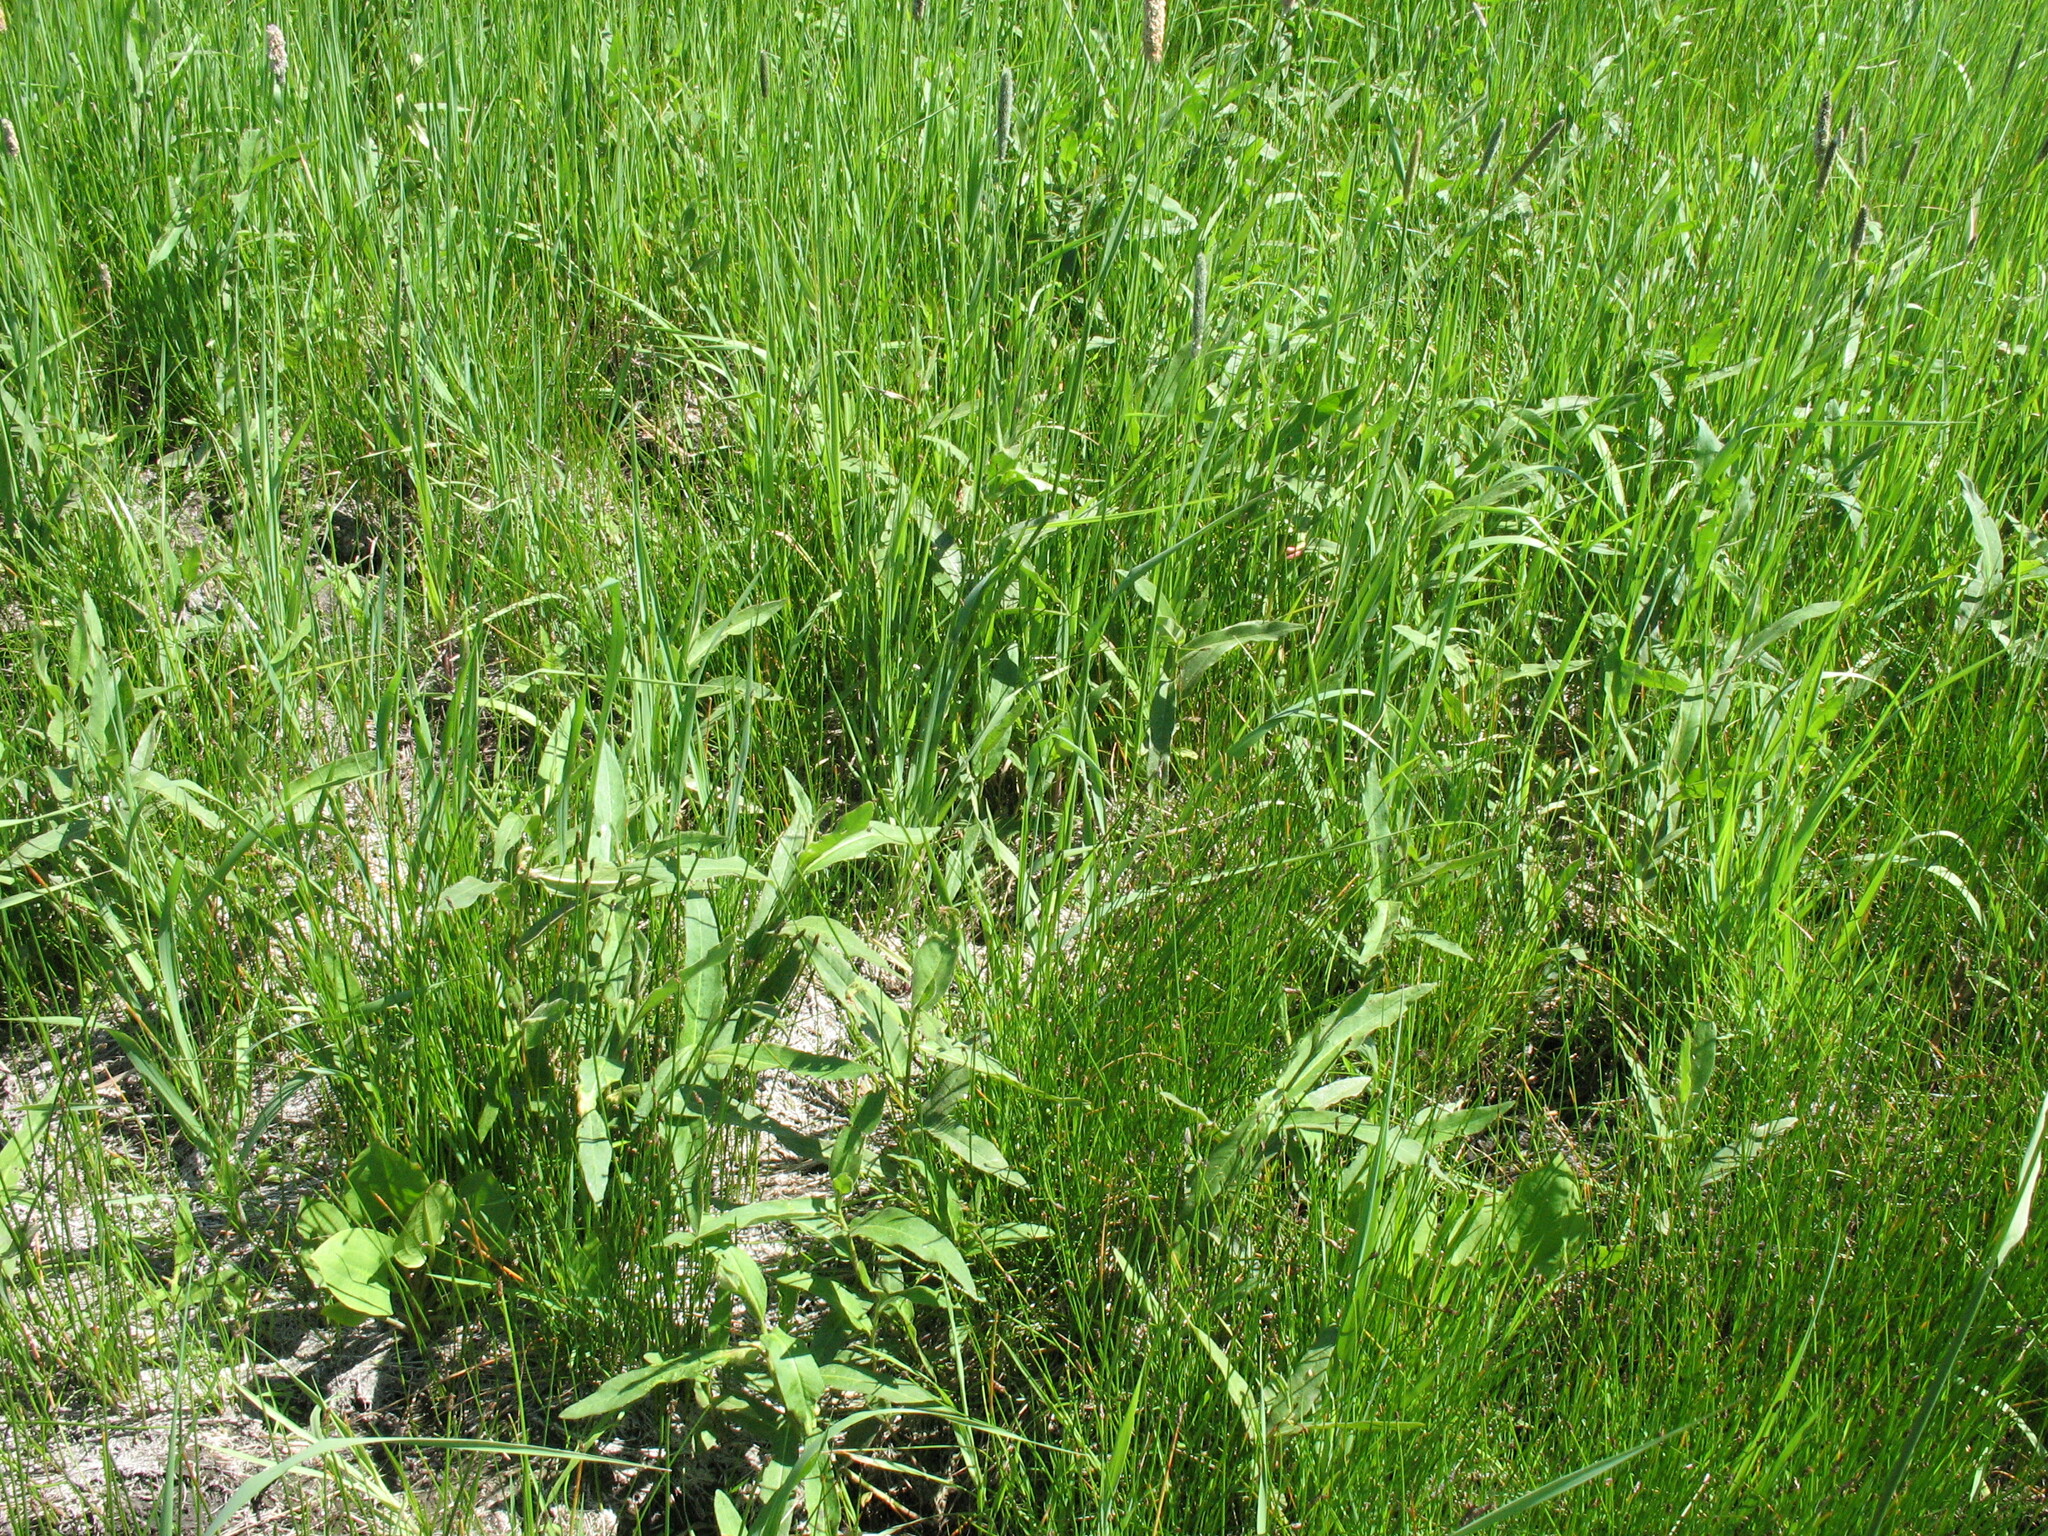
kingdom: Plantae
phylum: Tracheophyta
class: Magnoliopsida
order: Caryophyllales
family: Polygonaceae
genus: Persicaria
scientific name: Persicaria amphibia
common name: Amphibious bistort
